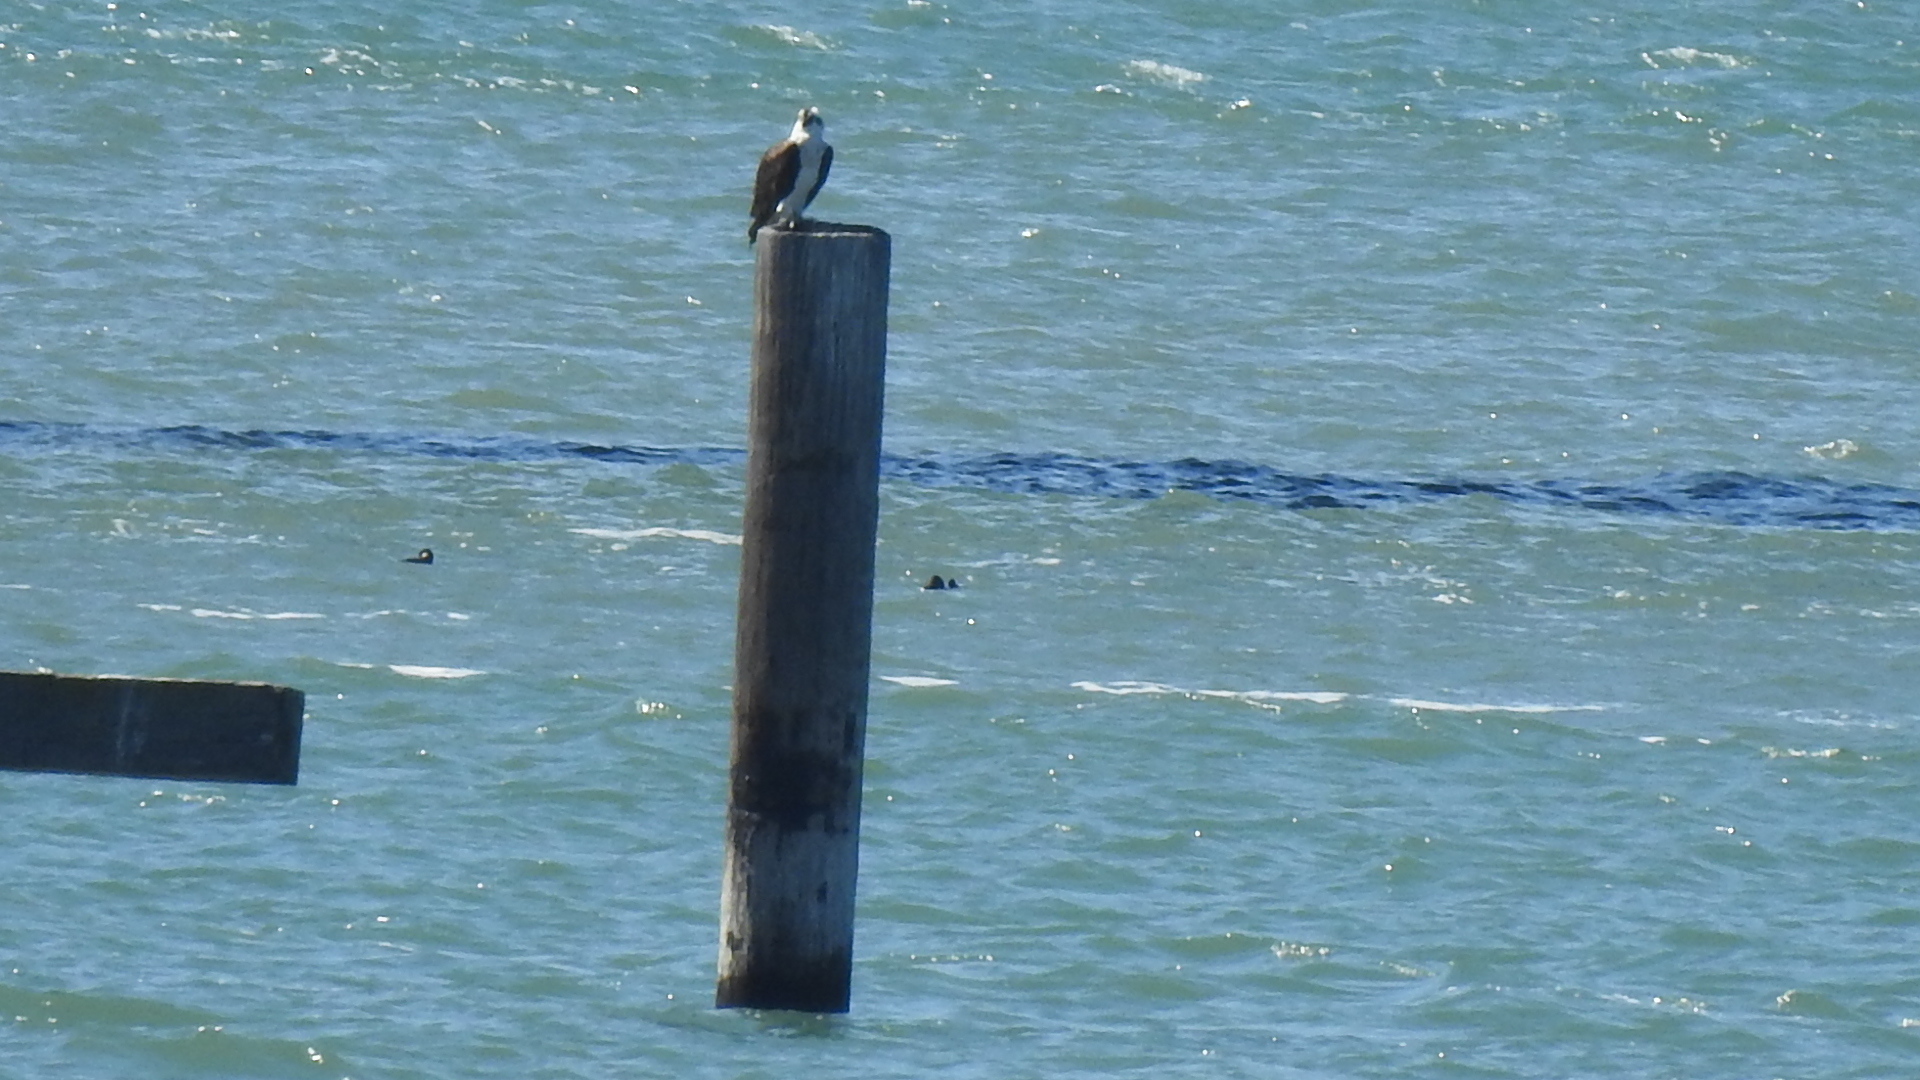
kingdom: Animalia
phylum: Chordata
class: Aves
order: Accipitriformes
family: Pandionidae
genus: Pandion
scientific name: Pandion haliaetus
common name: Osprey
